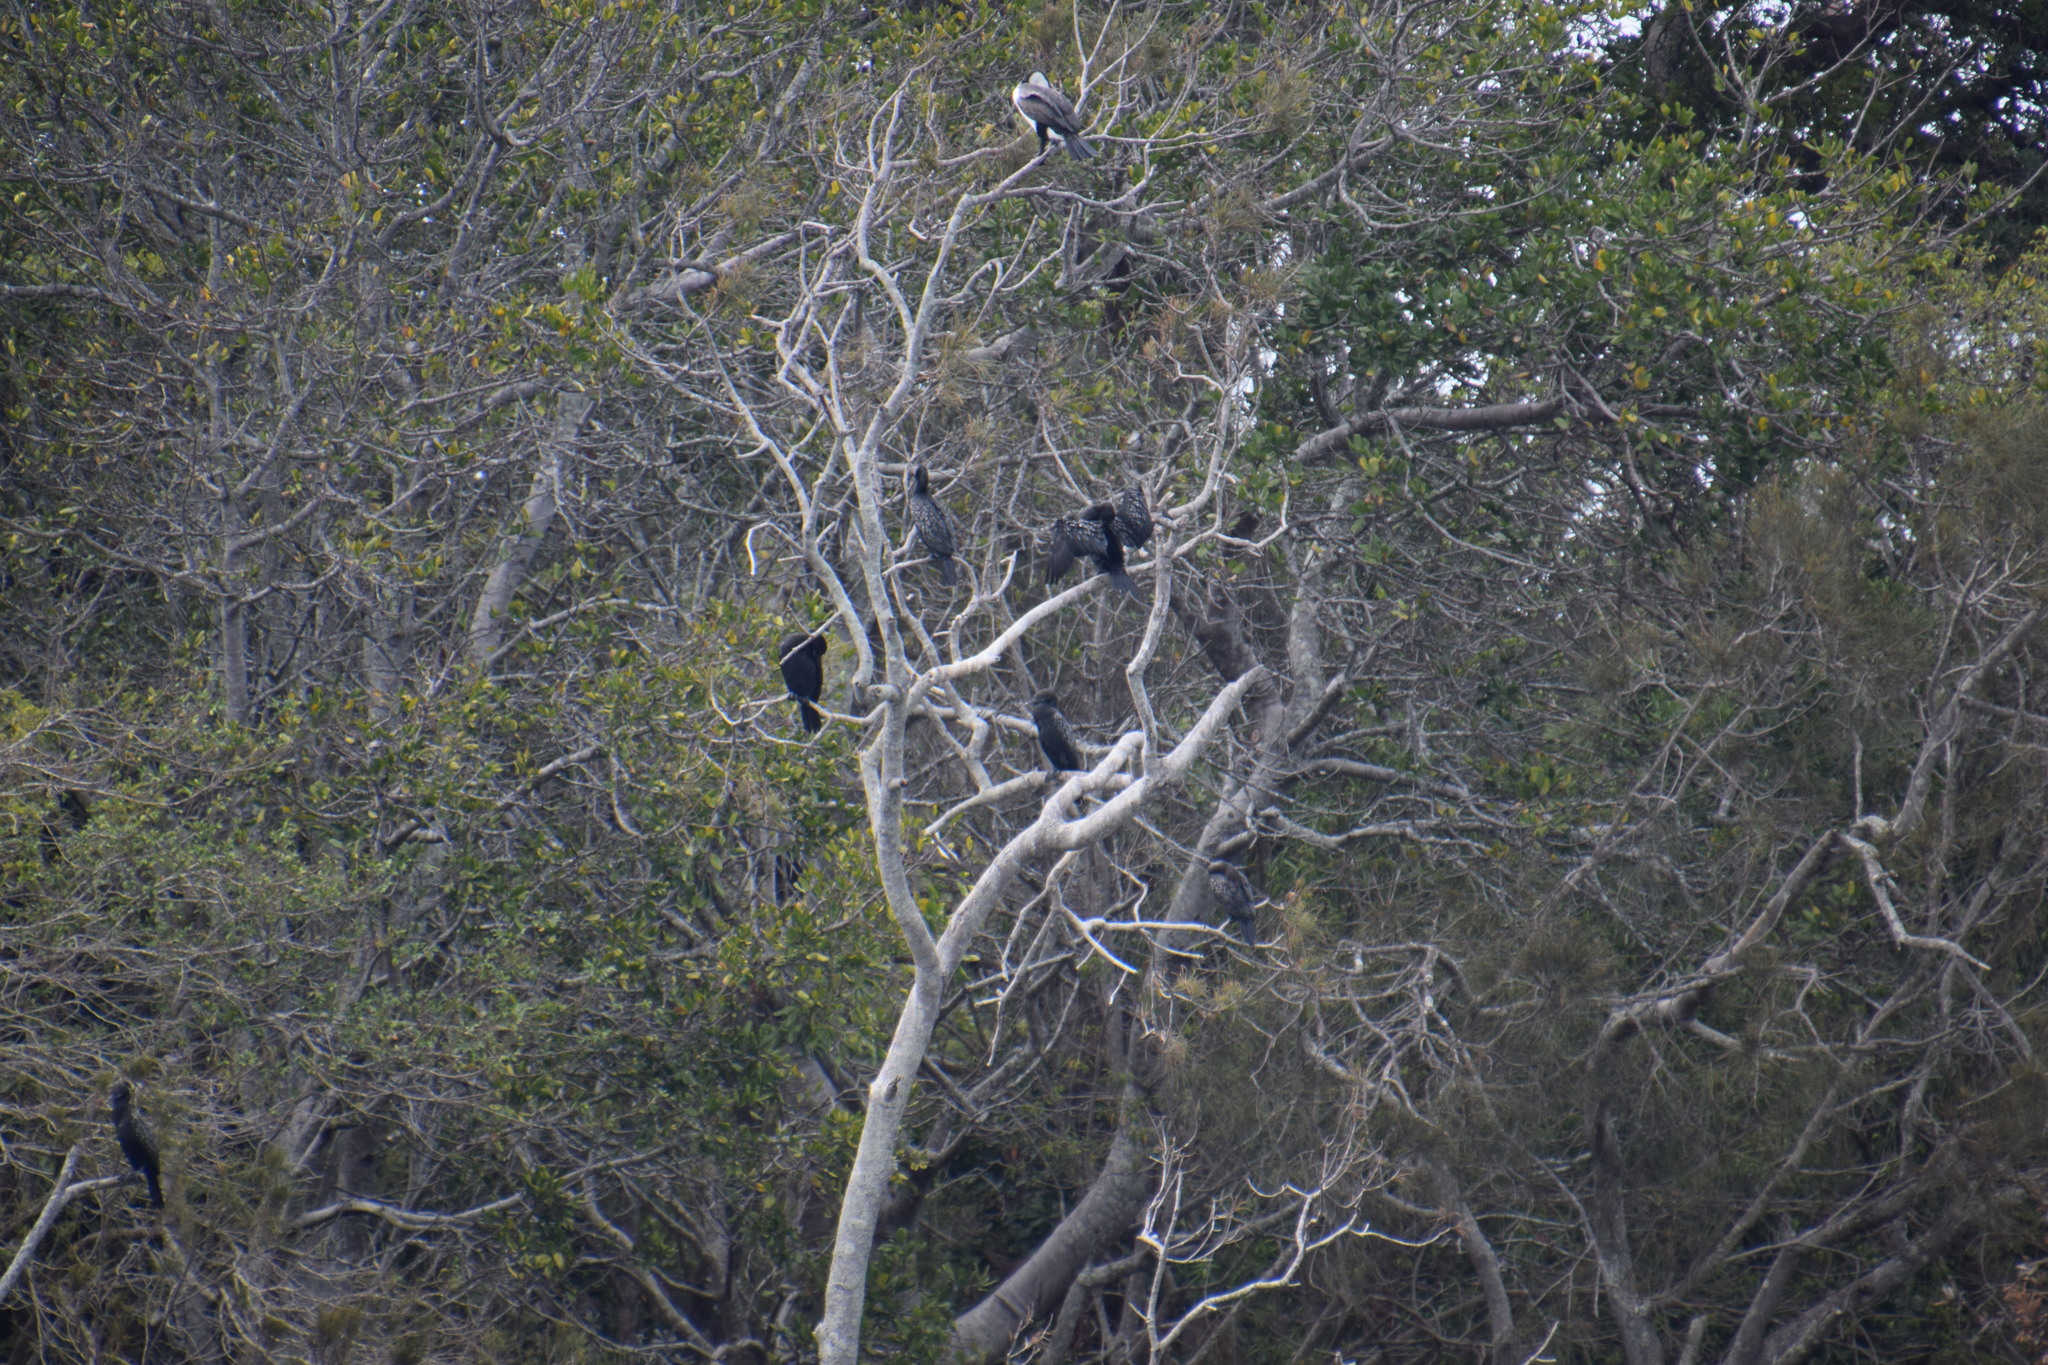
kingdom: Animalia
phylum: Chordata
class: Aves
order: Suliformes
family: Phalacrocoracidae
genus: Phalacrocorax
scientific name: Phalacrocorax sulcirostris
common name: Little black cormorant
